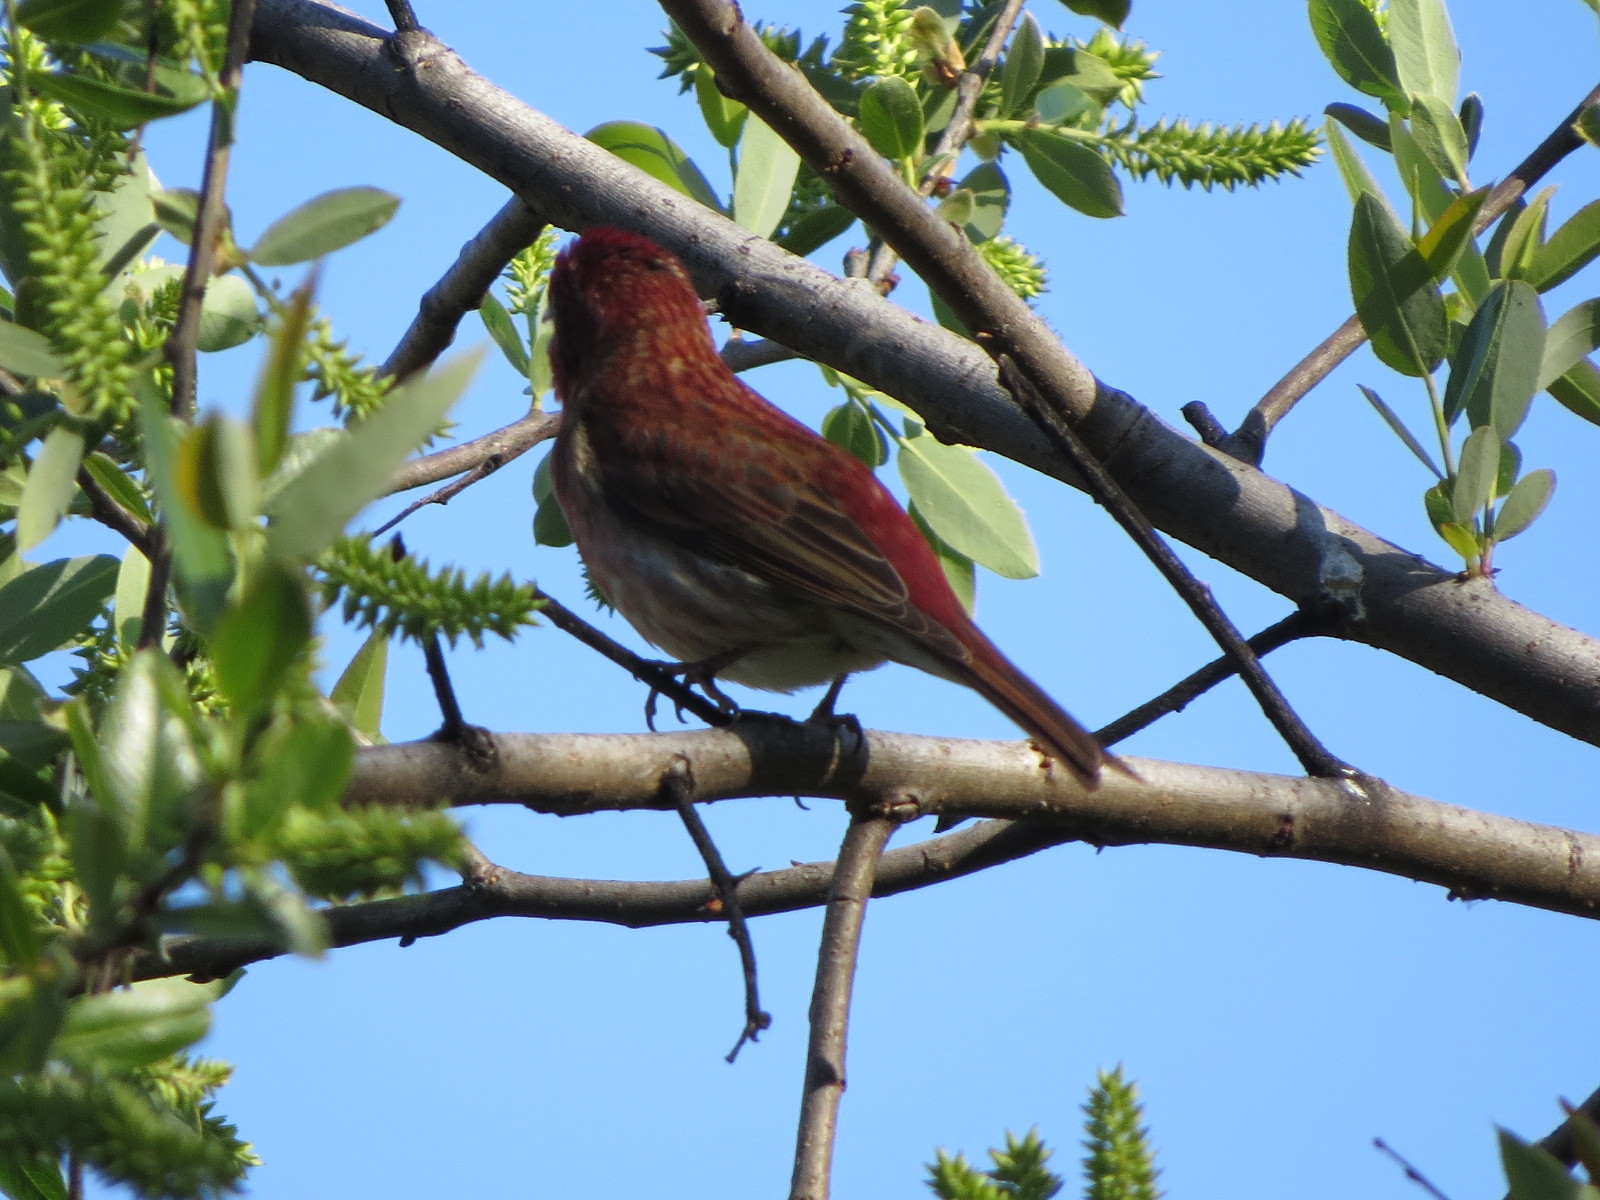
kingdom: Animalia
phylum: Chordata
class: Aves
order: Passeriformes
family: Fringillidae
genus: Haemorhous
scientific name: Haemorhous purpureus
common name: Purple finch
